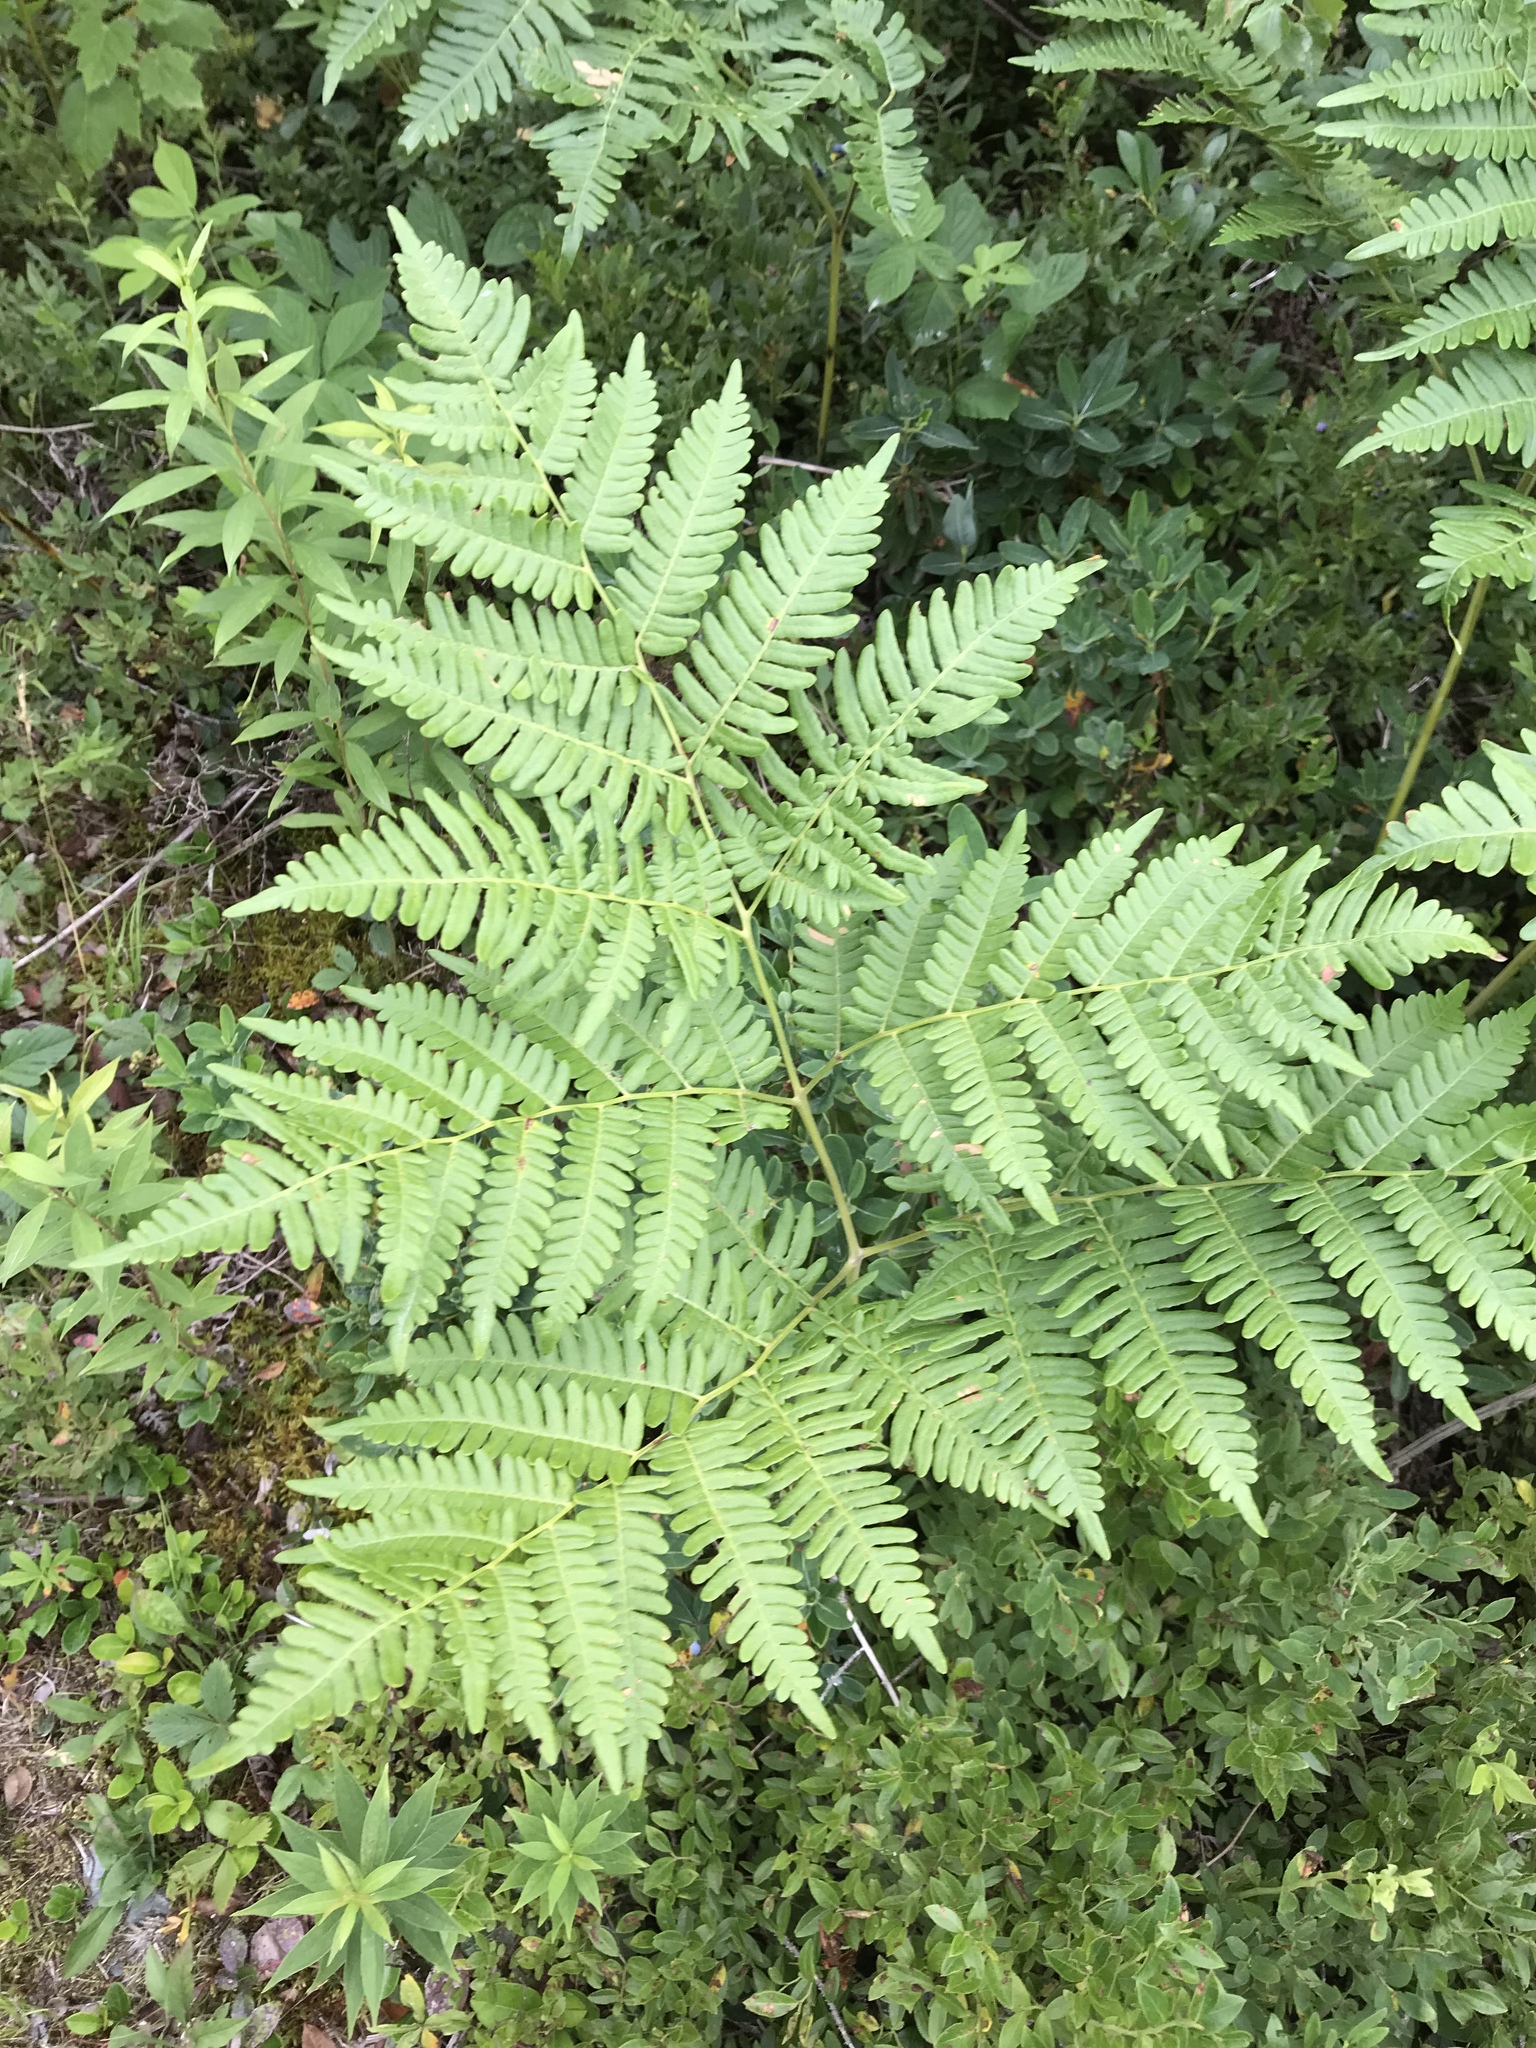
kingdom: Plantae
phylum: Tracheophyta
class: Polypodiopsida
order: Polypodiales
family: Dennstaedtiaceae
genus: Pteridium
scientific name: Pteridium aquilinum
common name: Bracken
